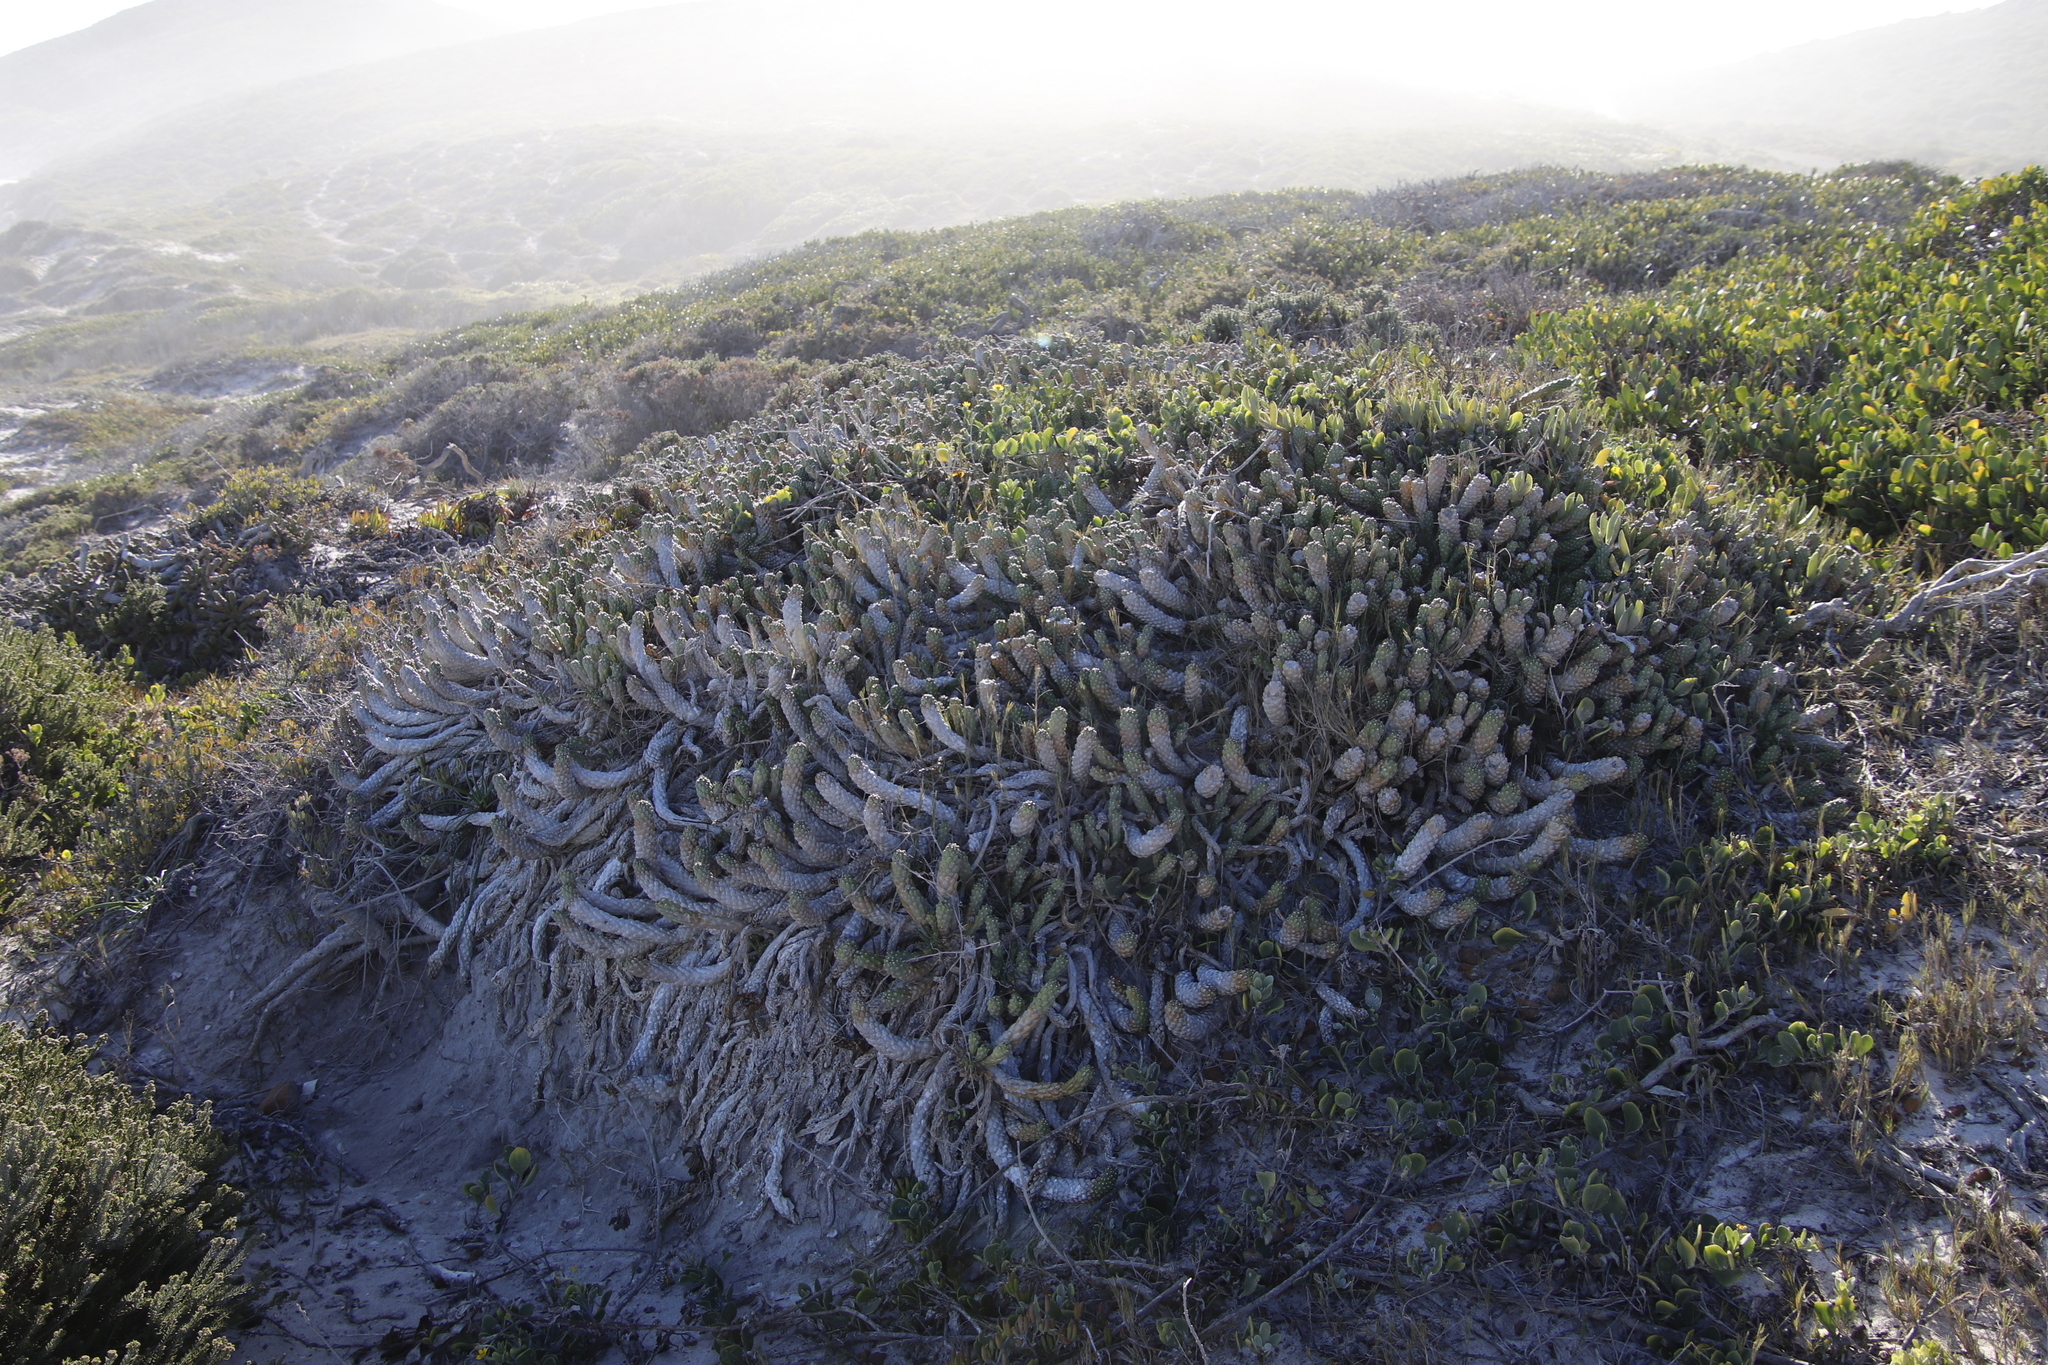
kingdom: Plantae
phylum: Tracheophyta
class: Magnoliopsida
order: Malpighiales
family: Euphorbiaceae
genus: Euphorbia
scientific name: Euphorbia caput-medusae
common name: Medusa's-head
